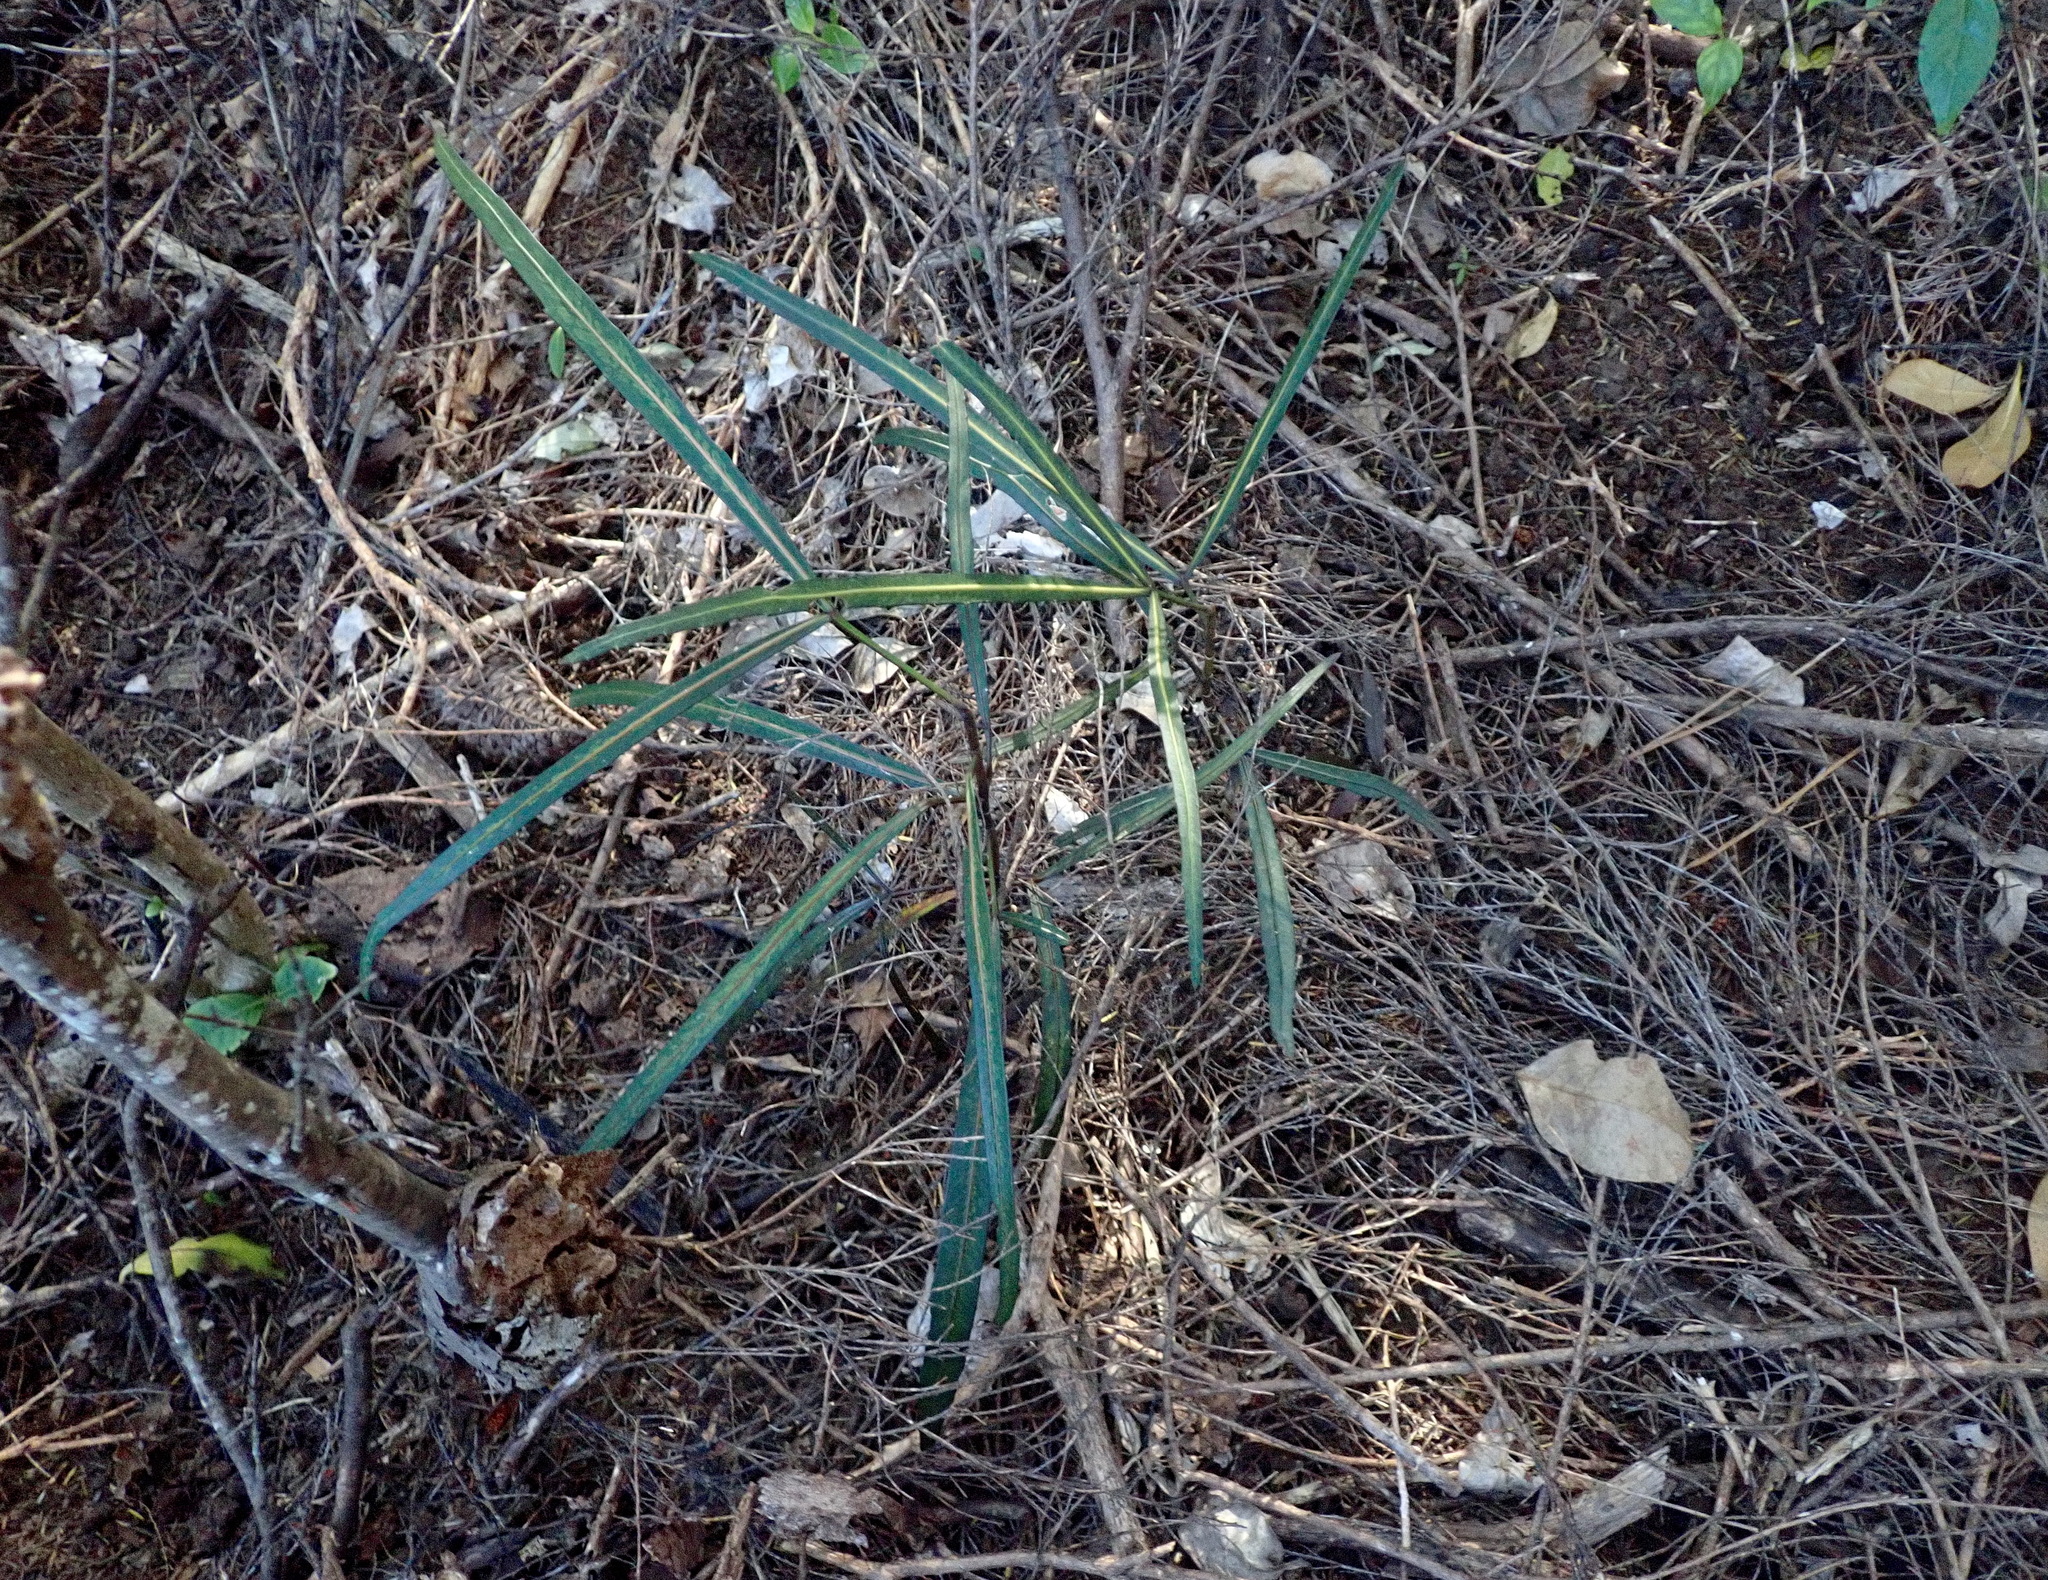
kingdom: Plantae
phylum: Tracheophyta
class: Magnoliopsida
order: Apiales
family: Araliaceae
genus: Pseudopanax
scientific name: Pseudopanax
